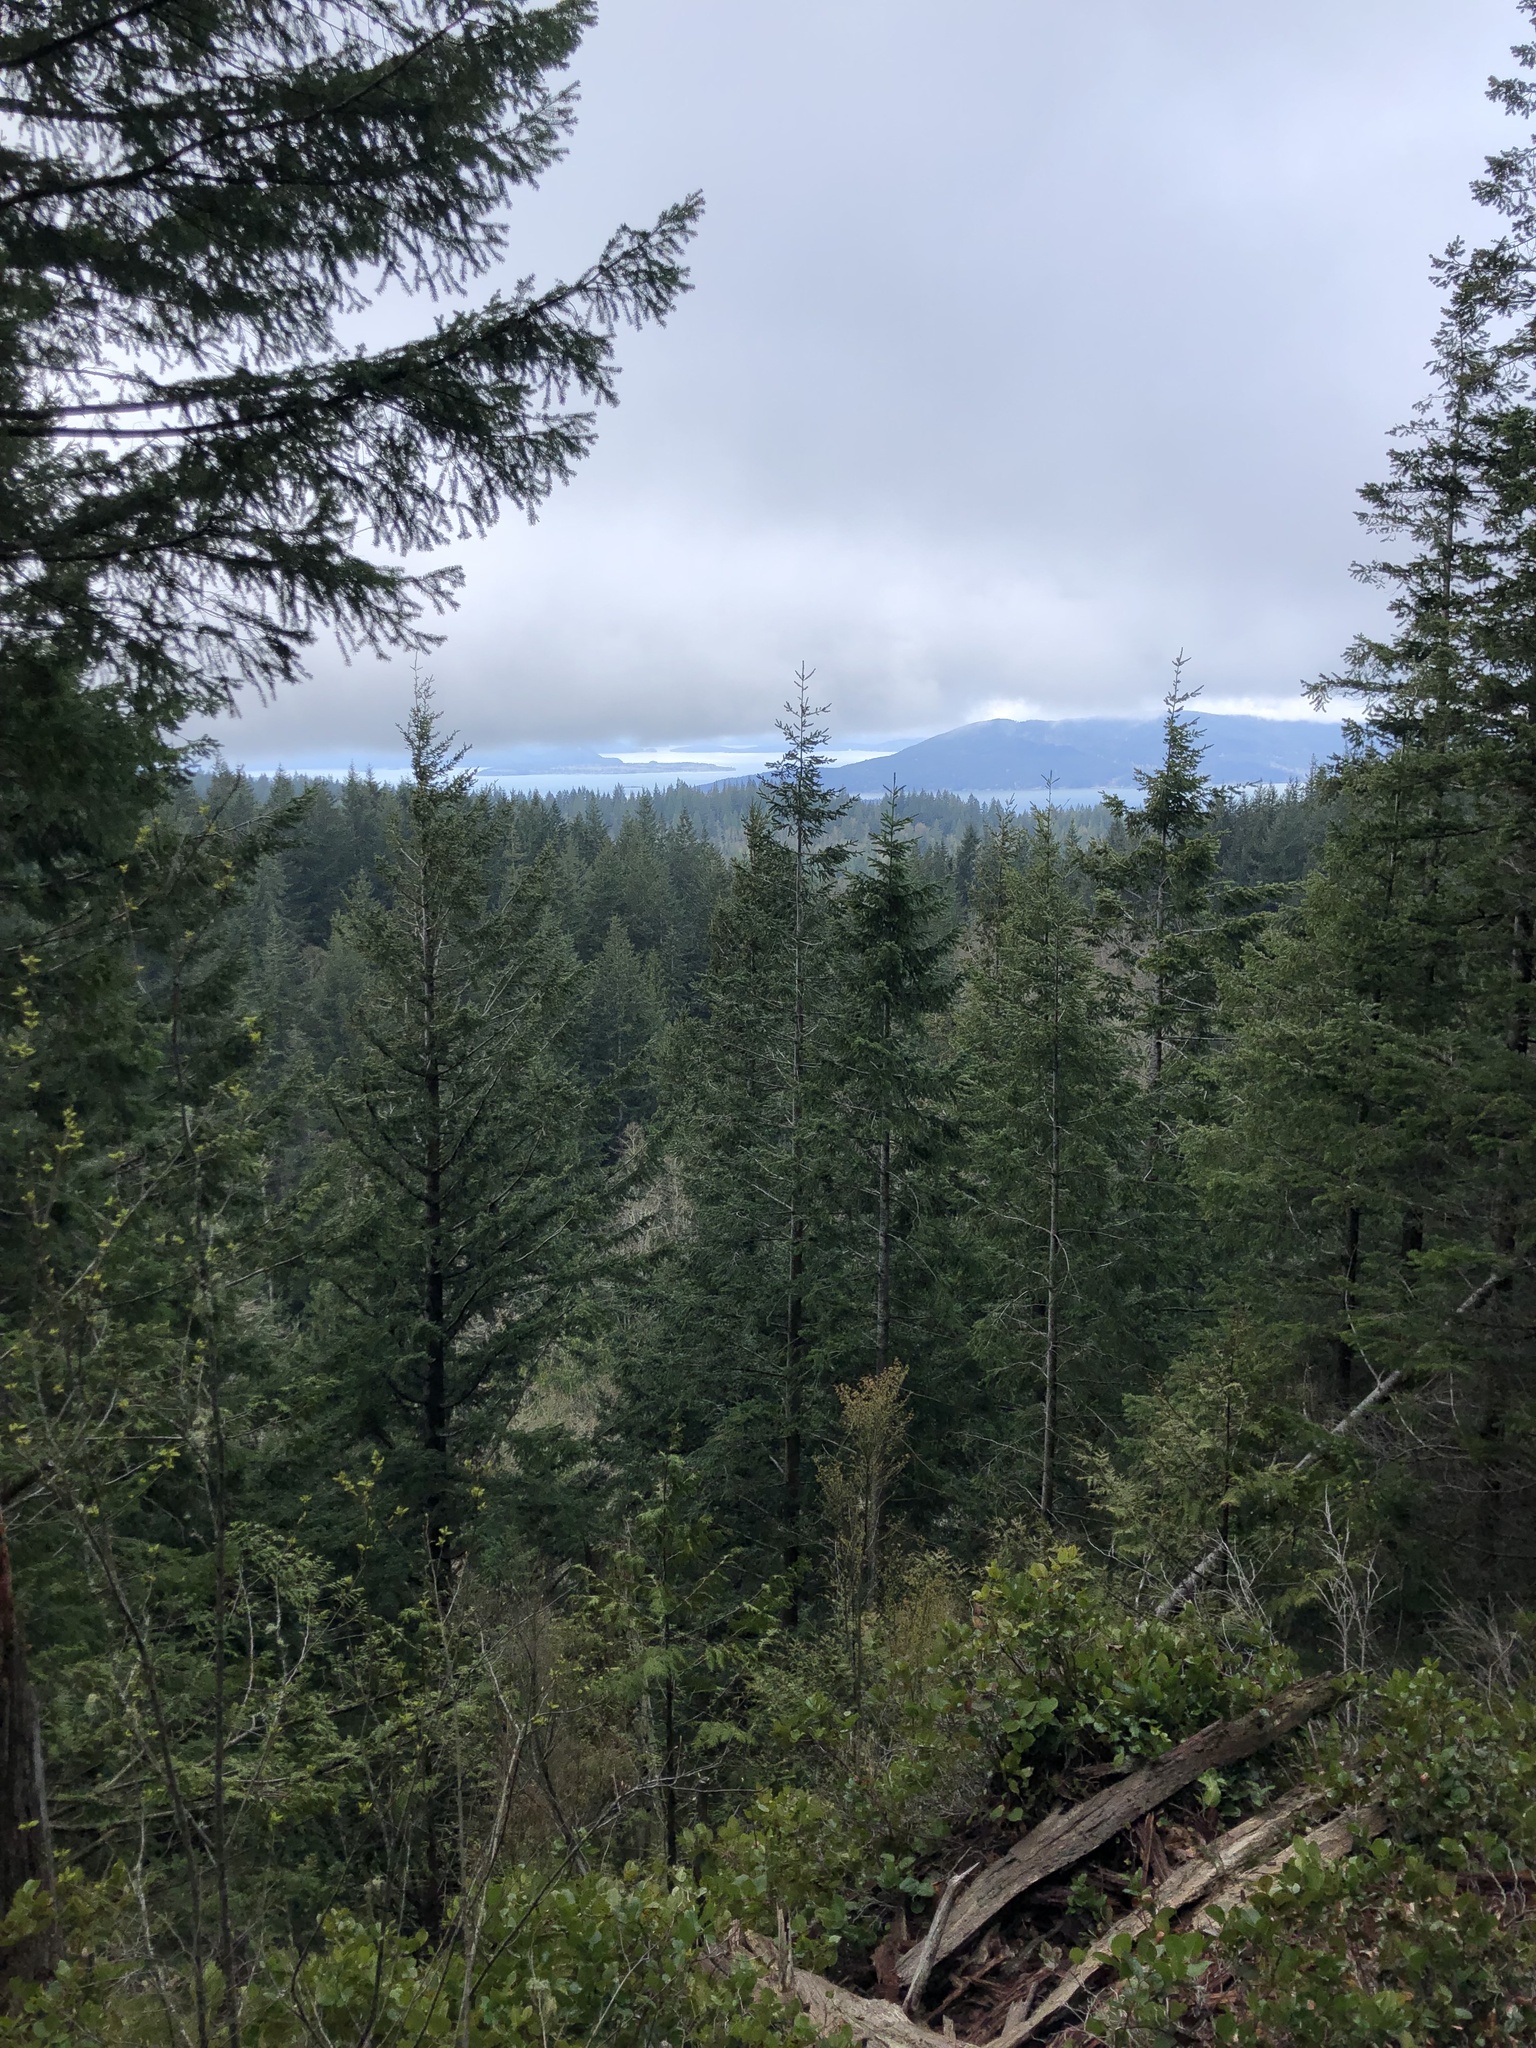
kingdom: Plantae
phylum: Tracheophyta
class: Pinopsida
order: Pinales
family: Pinaceae
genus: Pseudotsuga
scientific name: Pseudotsuga menziesii
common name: Douglas fir
